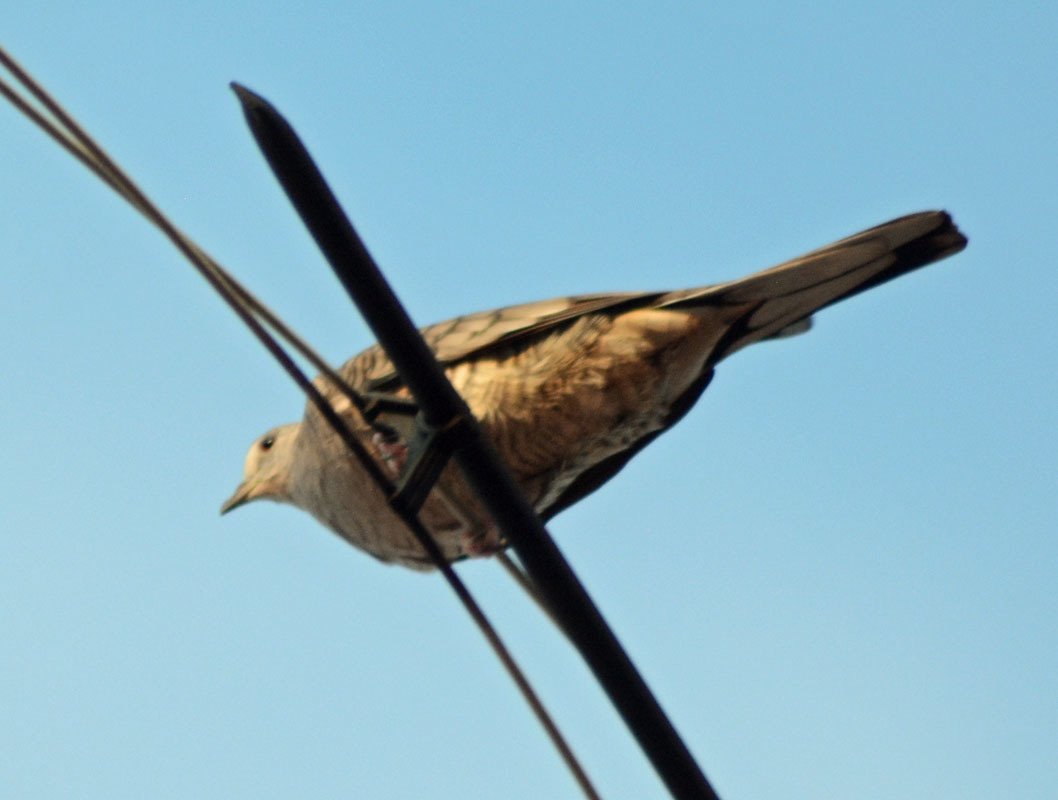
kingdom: Animalia
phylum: Chordata
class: Aves
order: Columbiformes
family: Columbidae
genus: Columbina
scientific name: Columbina inca
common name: Inca dove
